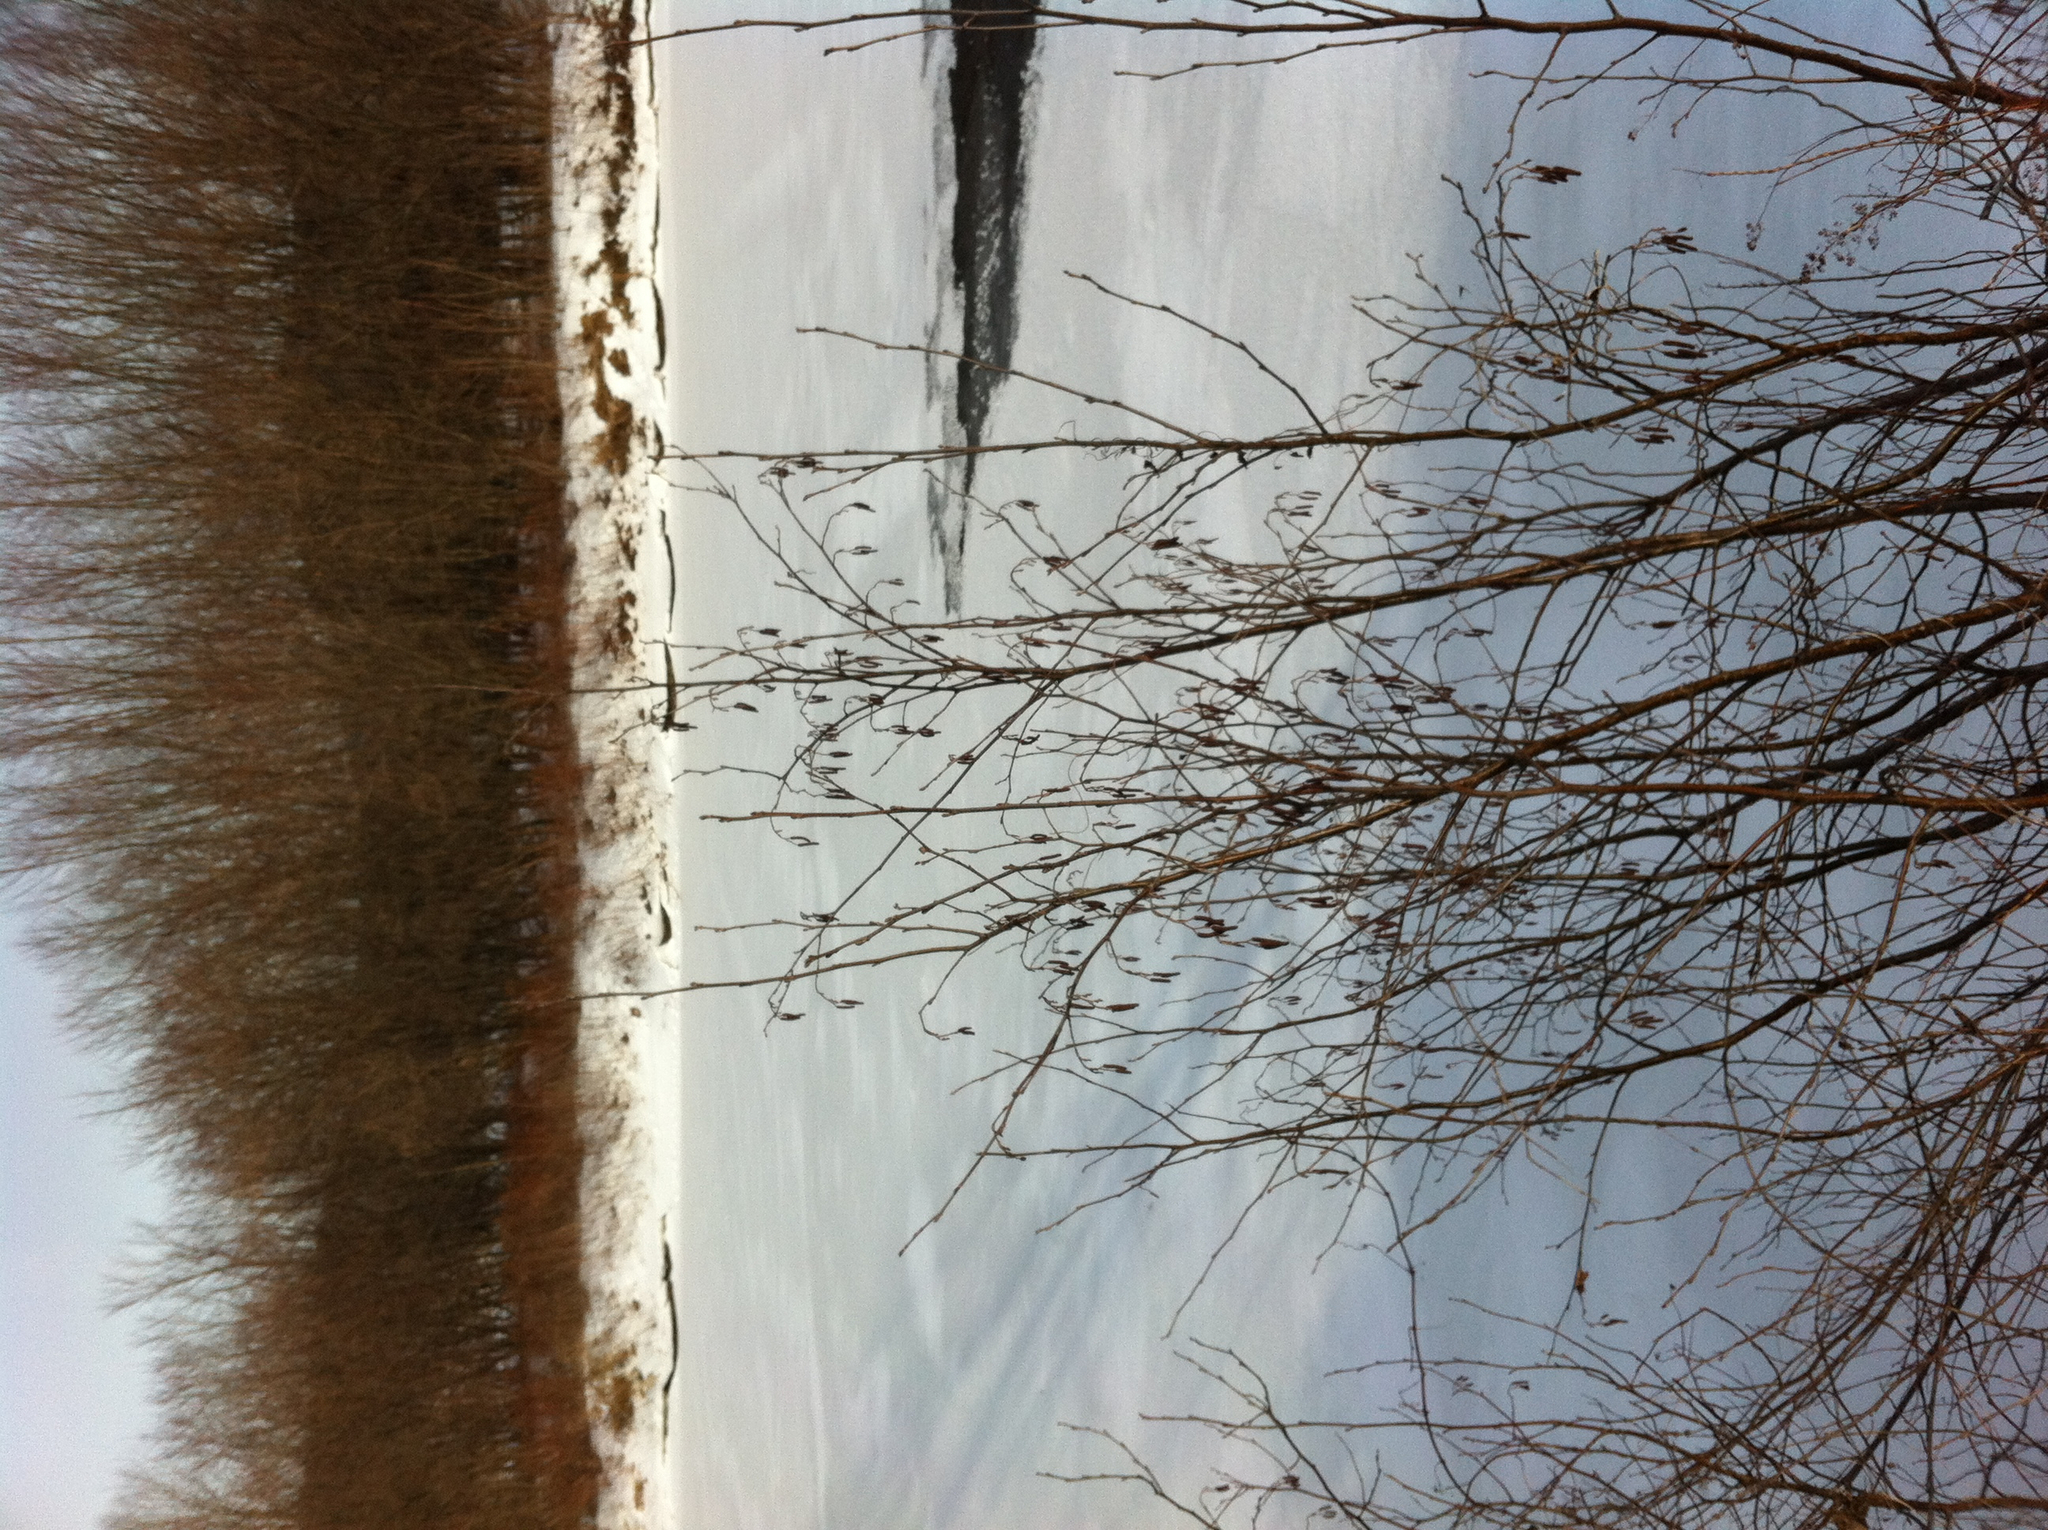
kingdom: Plantae
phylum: Tracheophyta
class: Magnoliopsida
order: Fagales
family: Betulaceae
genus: Alnus
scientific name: Alnus incana
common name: Grey alder
